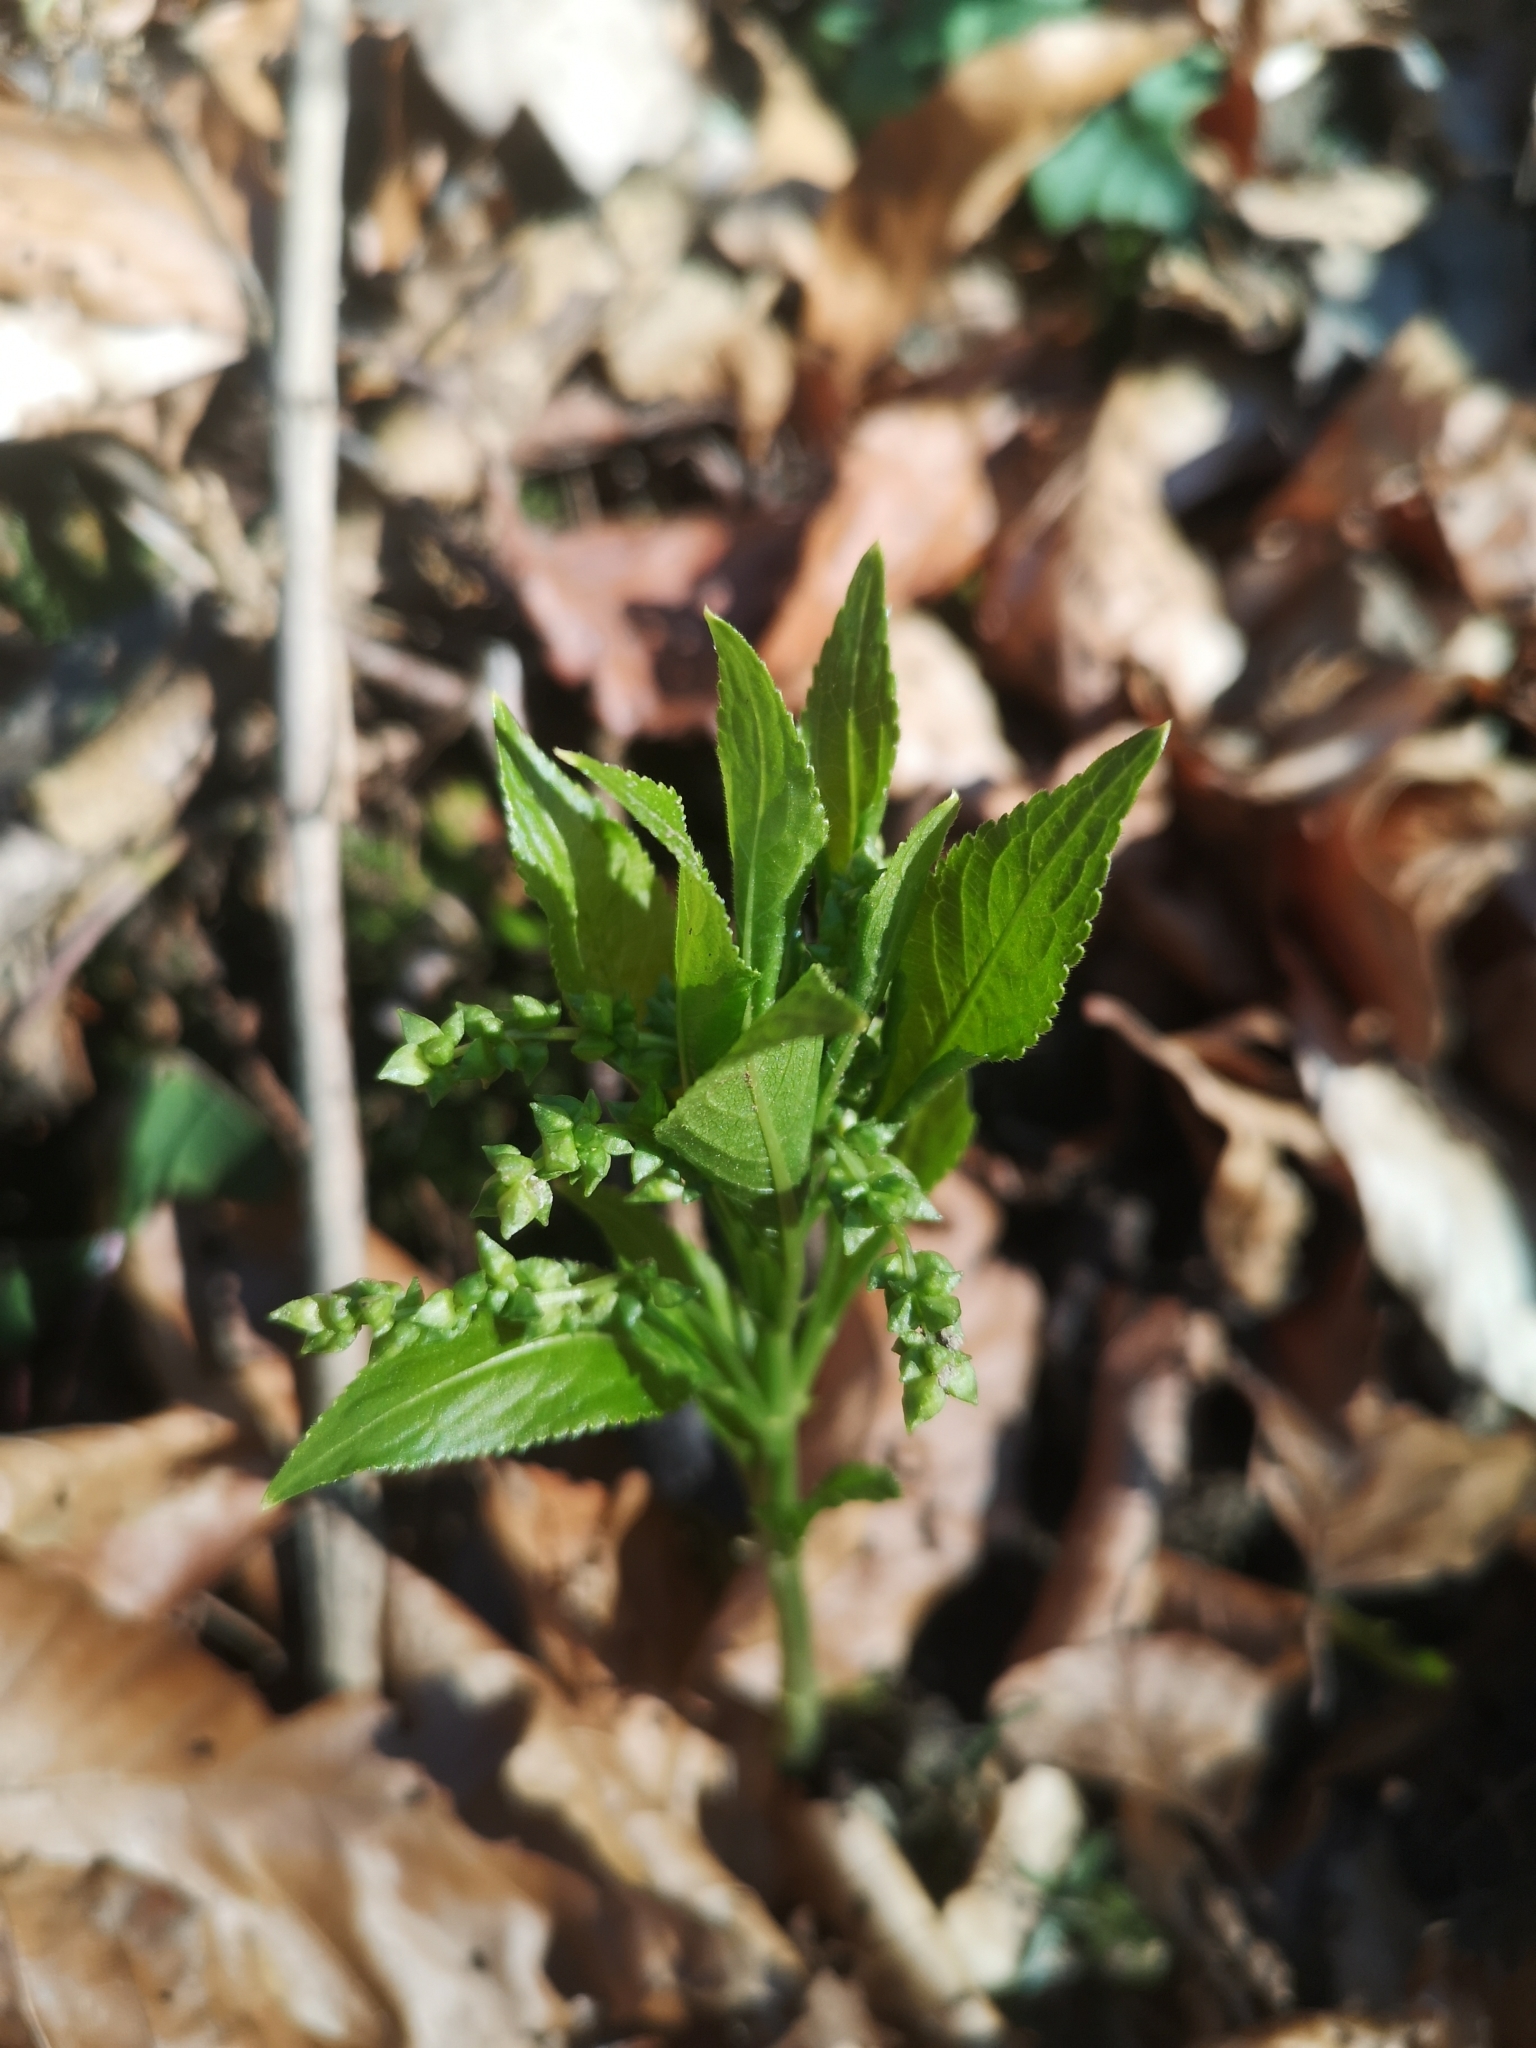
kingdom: Plantae
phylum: Tracheophyta
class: Magnoliopsida
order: Malpighiales
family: Euphorbiaceae
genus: Mercurialis
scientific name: Mercurialis perennis
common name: Dog mercury
